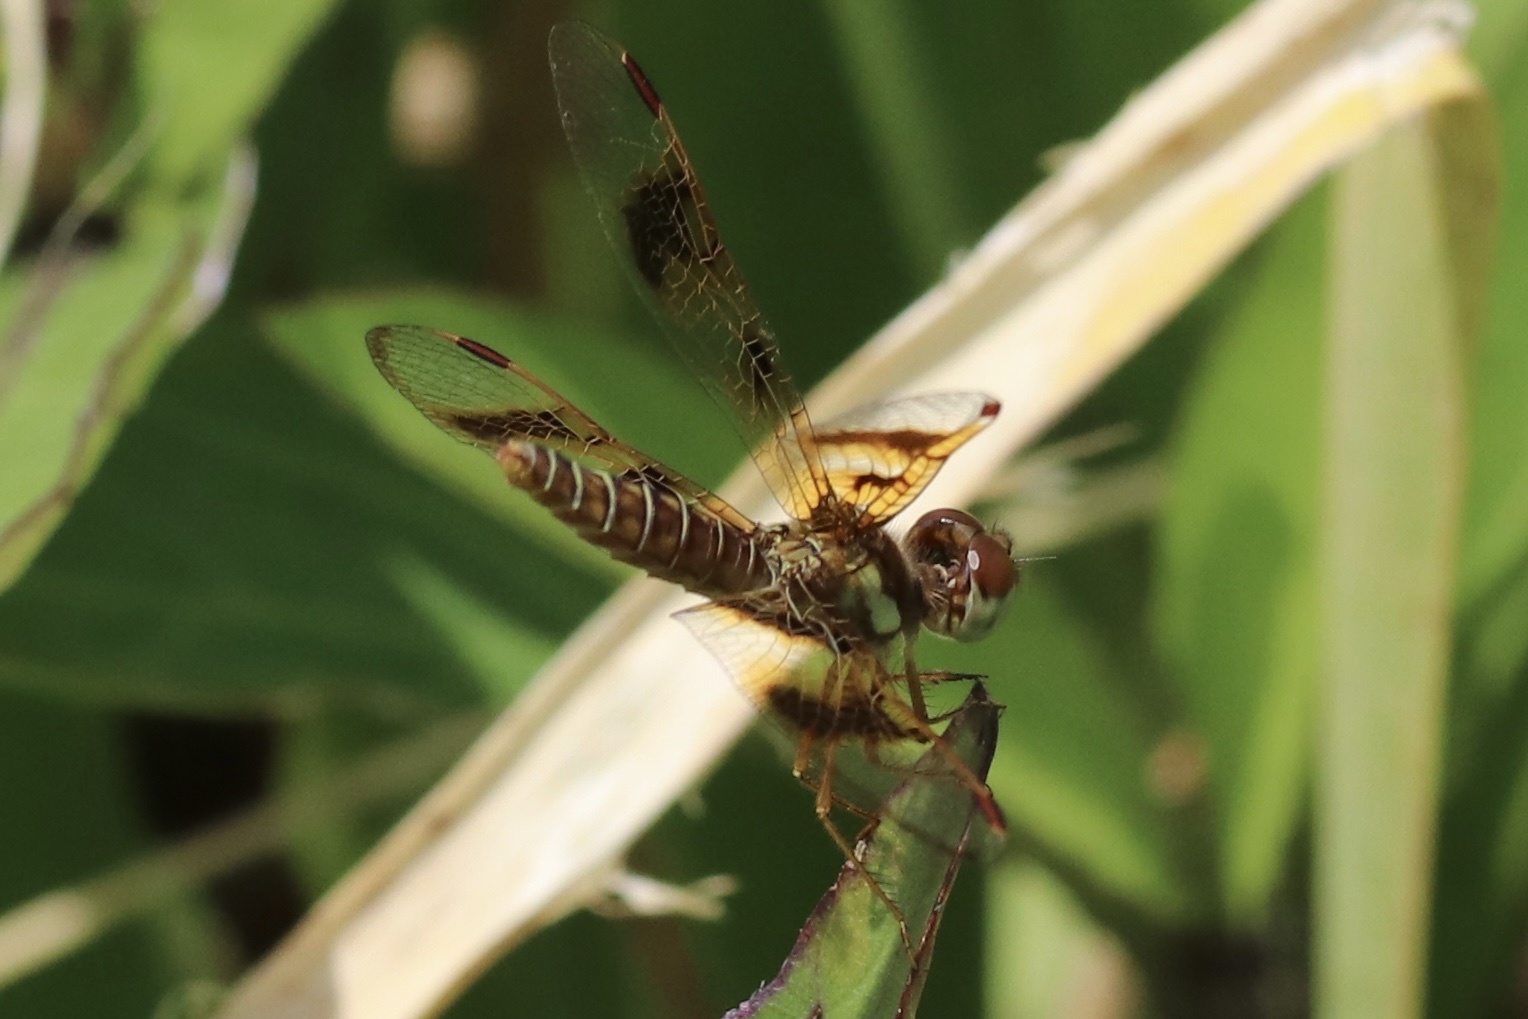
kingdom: Animalia
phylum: Arthropoda
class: Insecta
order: Odonata
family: Libellulidae
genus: Perithemis
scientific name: Perithemis tenera
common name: Eastern amberwing
